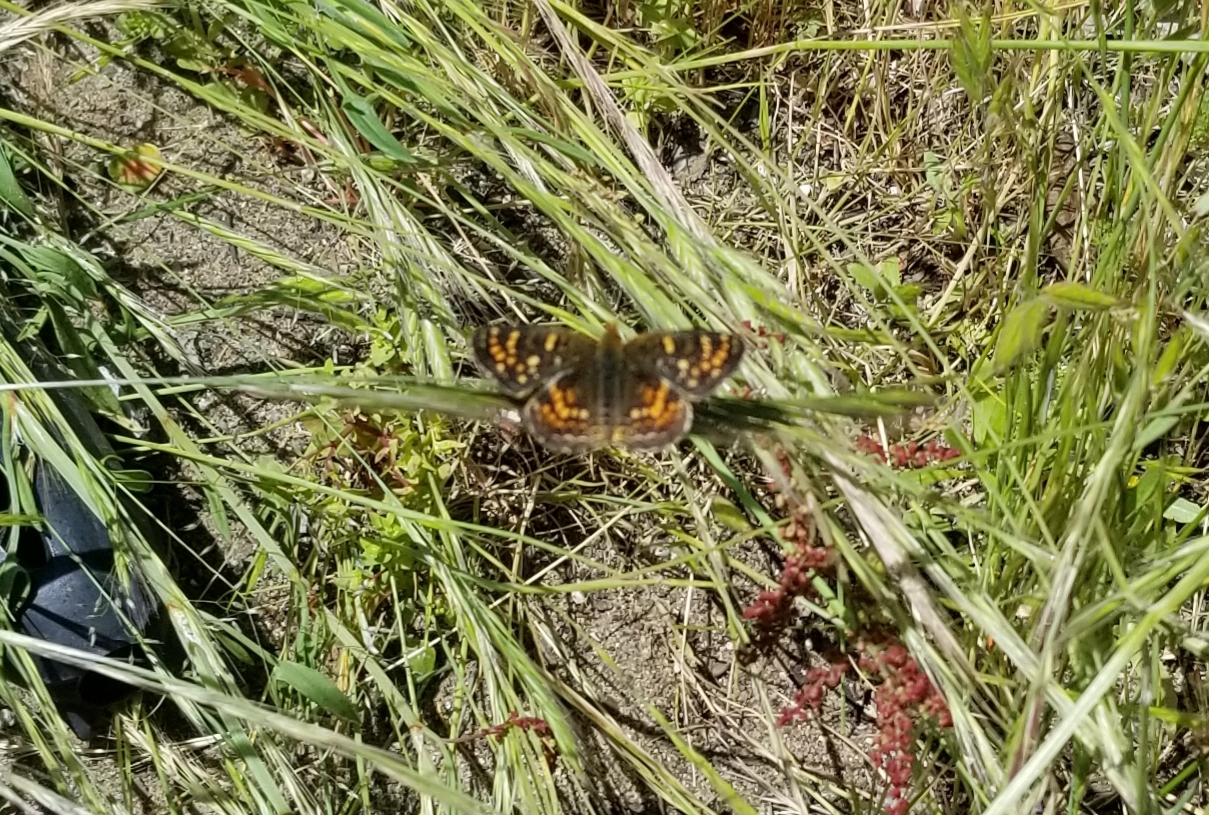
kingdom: Animalia
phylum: Arthropoda
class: Insecta
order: Lepidoptera
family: Nymphalidae
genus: Phyciodes
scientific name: Phyciodes tharos
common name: Pearl crescent
